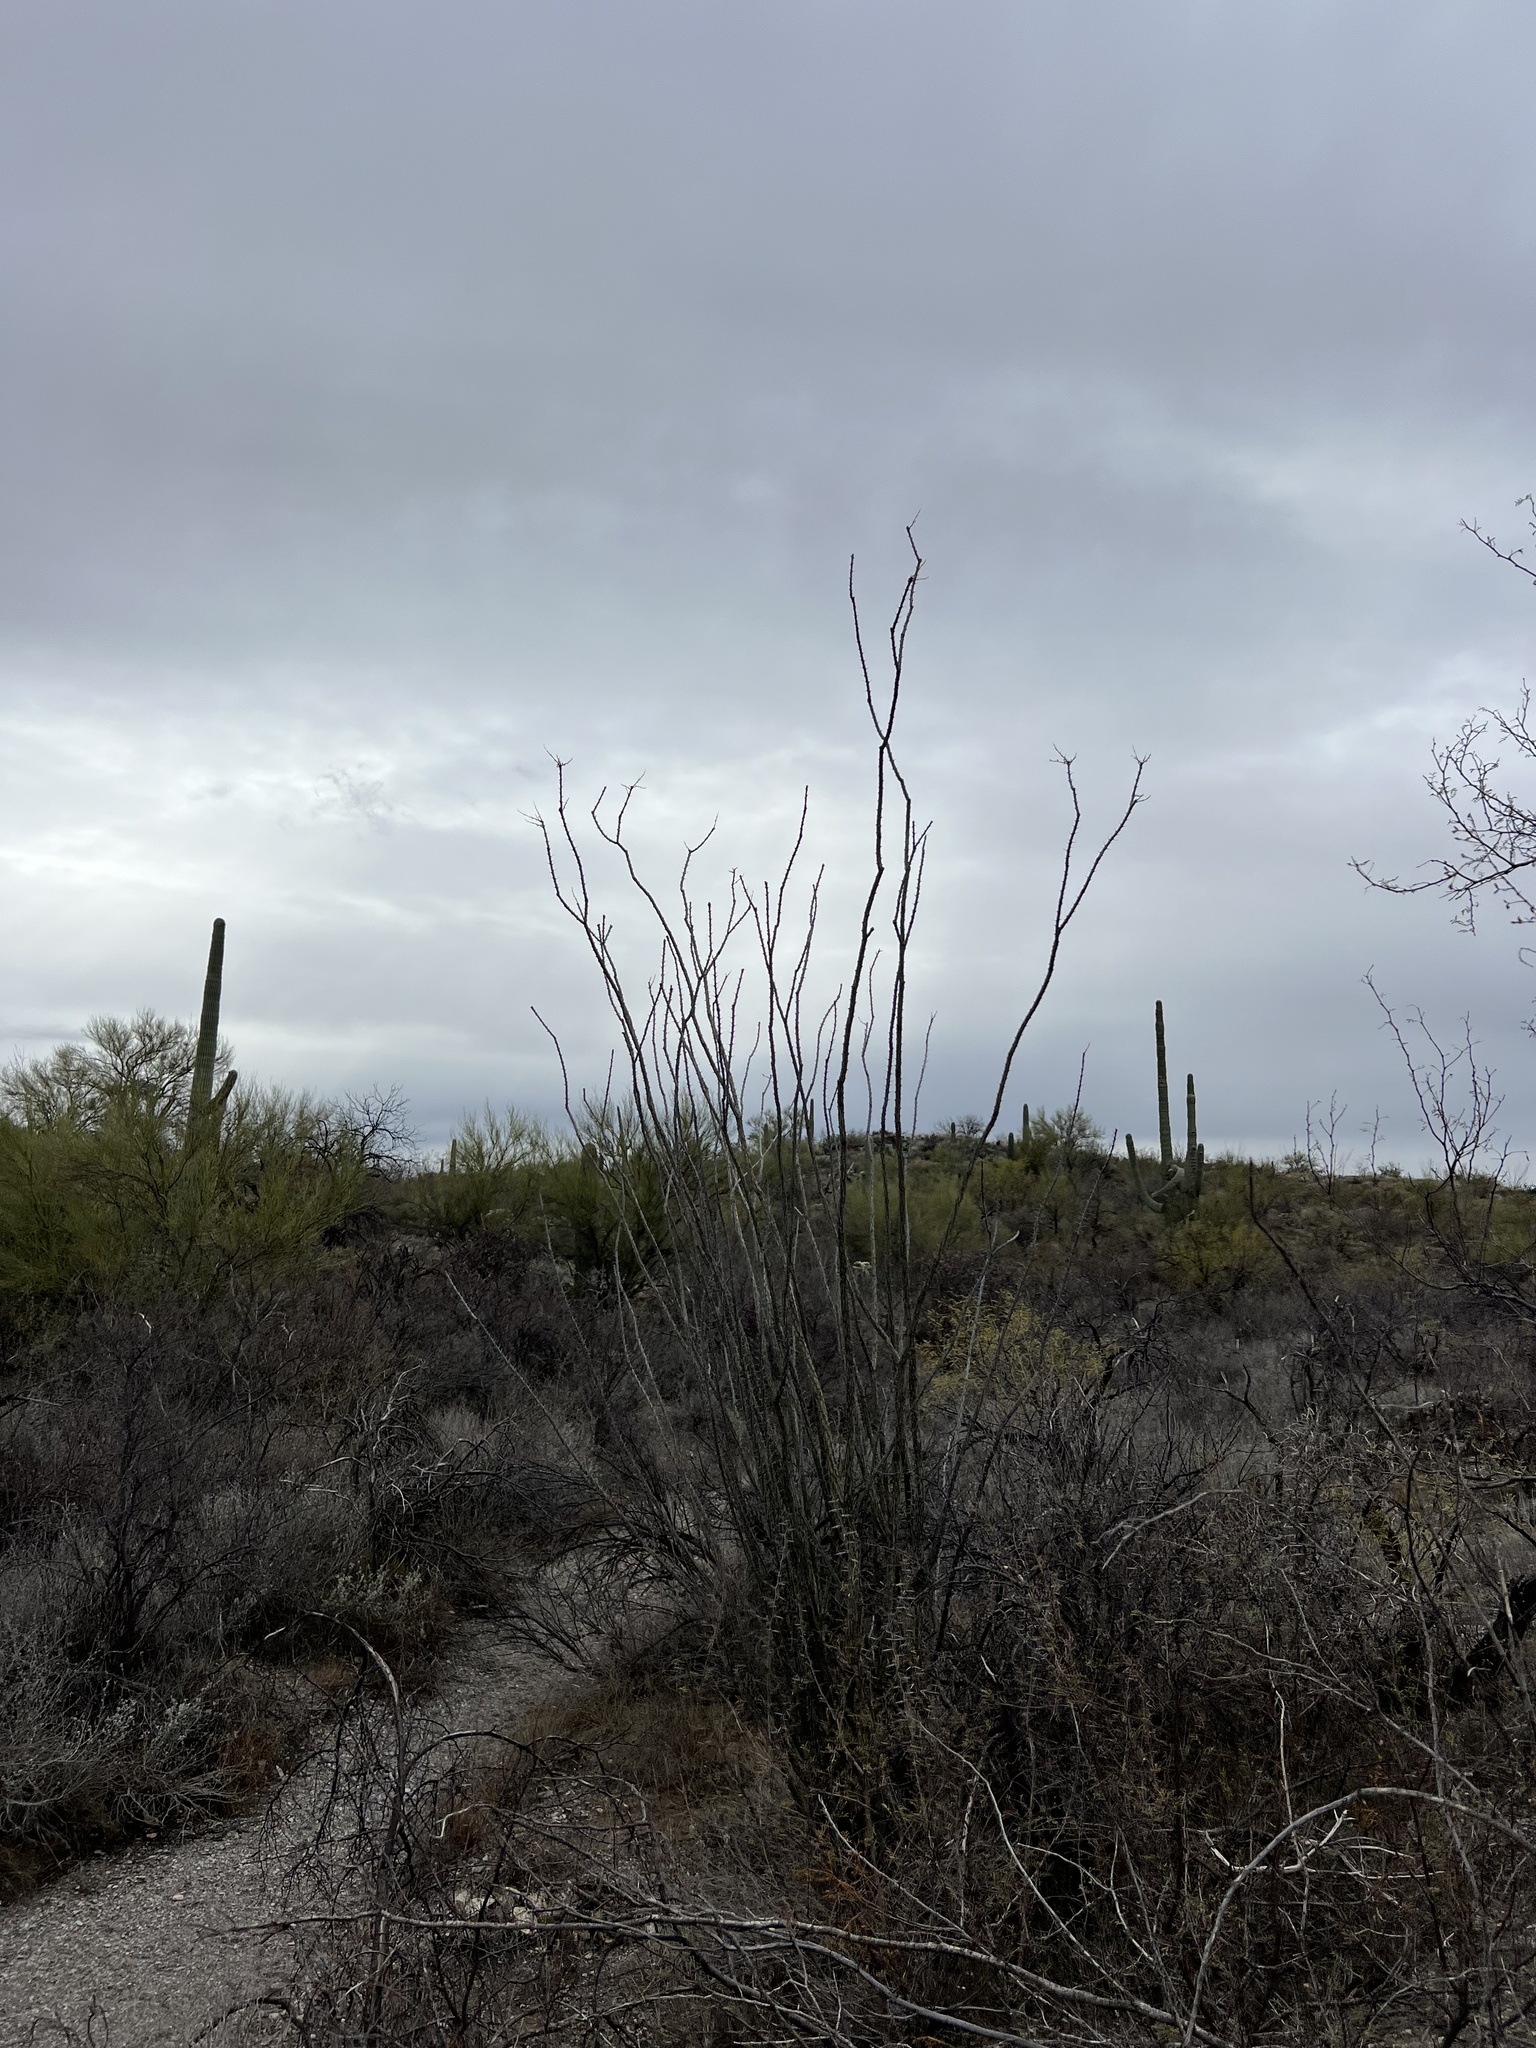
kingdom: Plantae
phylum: Tracheophyta
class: Magnoliopsida
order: Ericales
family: Fouquieriaceae
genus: Fouquieria
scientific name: Fouquieria splendens
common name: Vine-cactus
